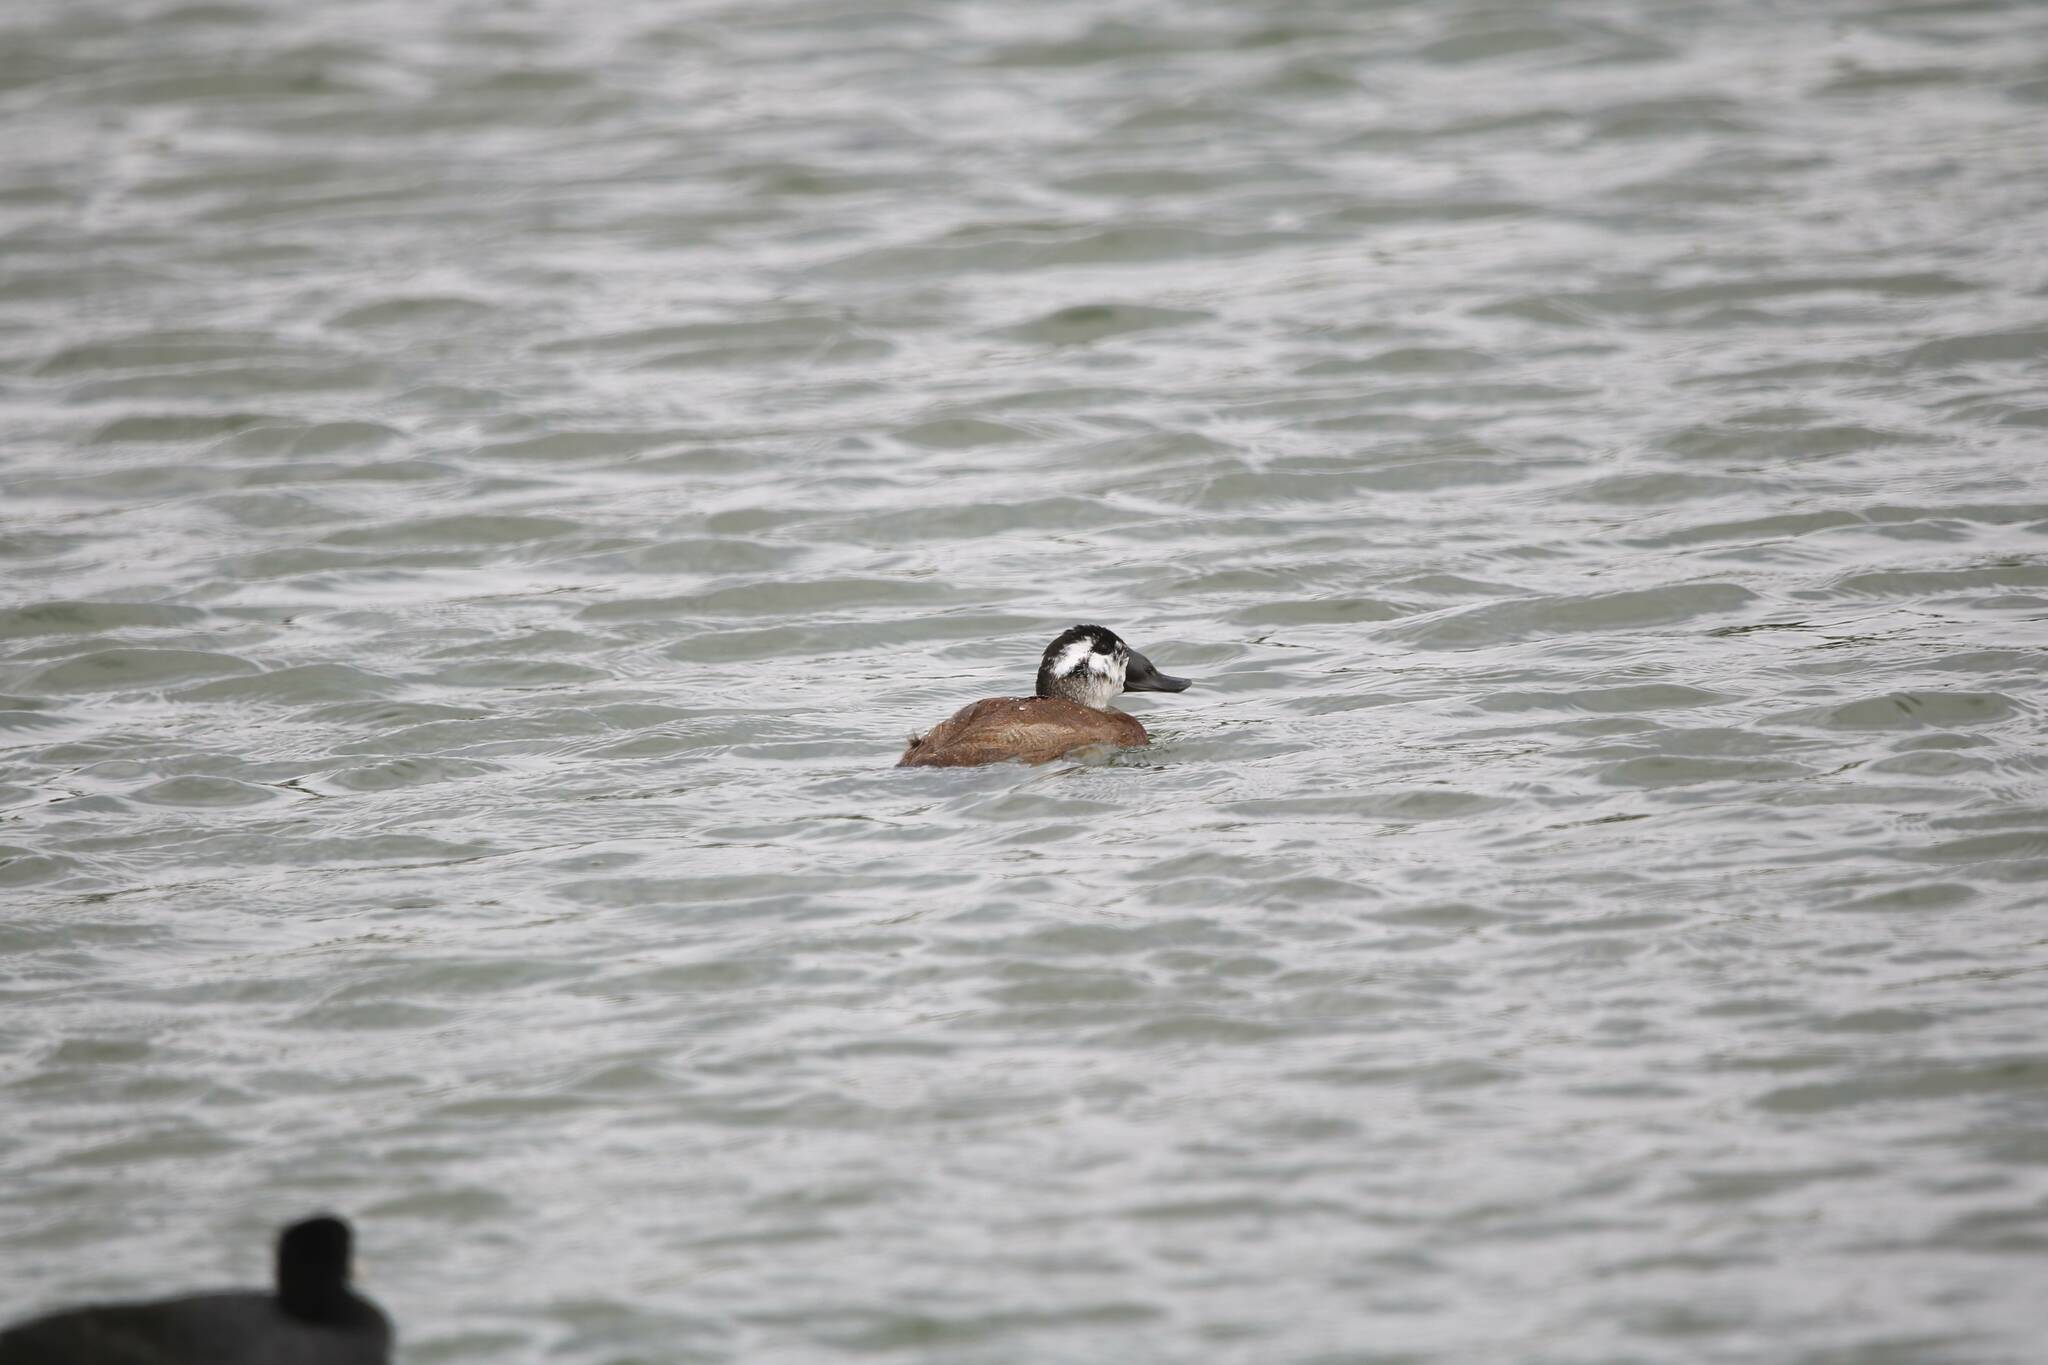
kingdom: Animalia
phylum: Chordata
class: Aves
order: Anseriformes
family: Anatidae
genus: Oxyura
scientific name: Oxyura leucocephala
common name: White-headed duck
